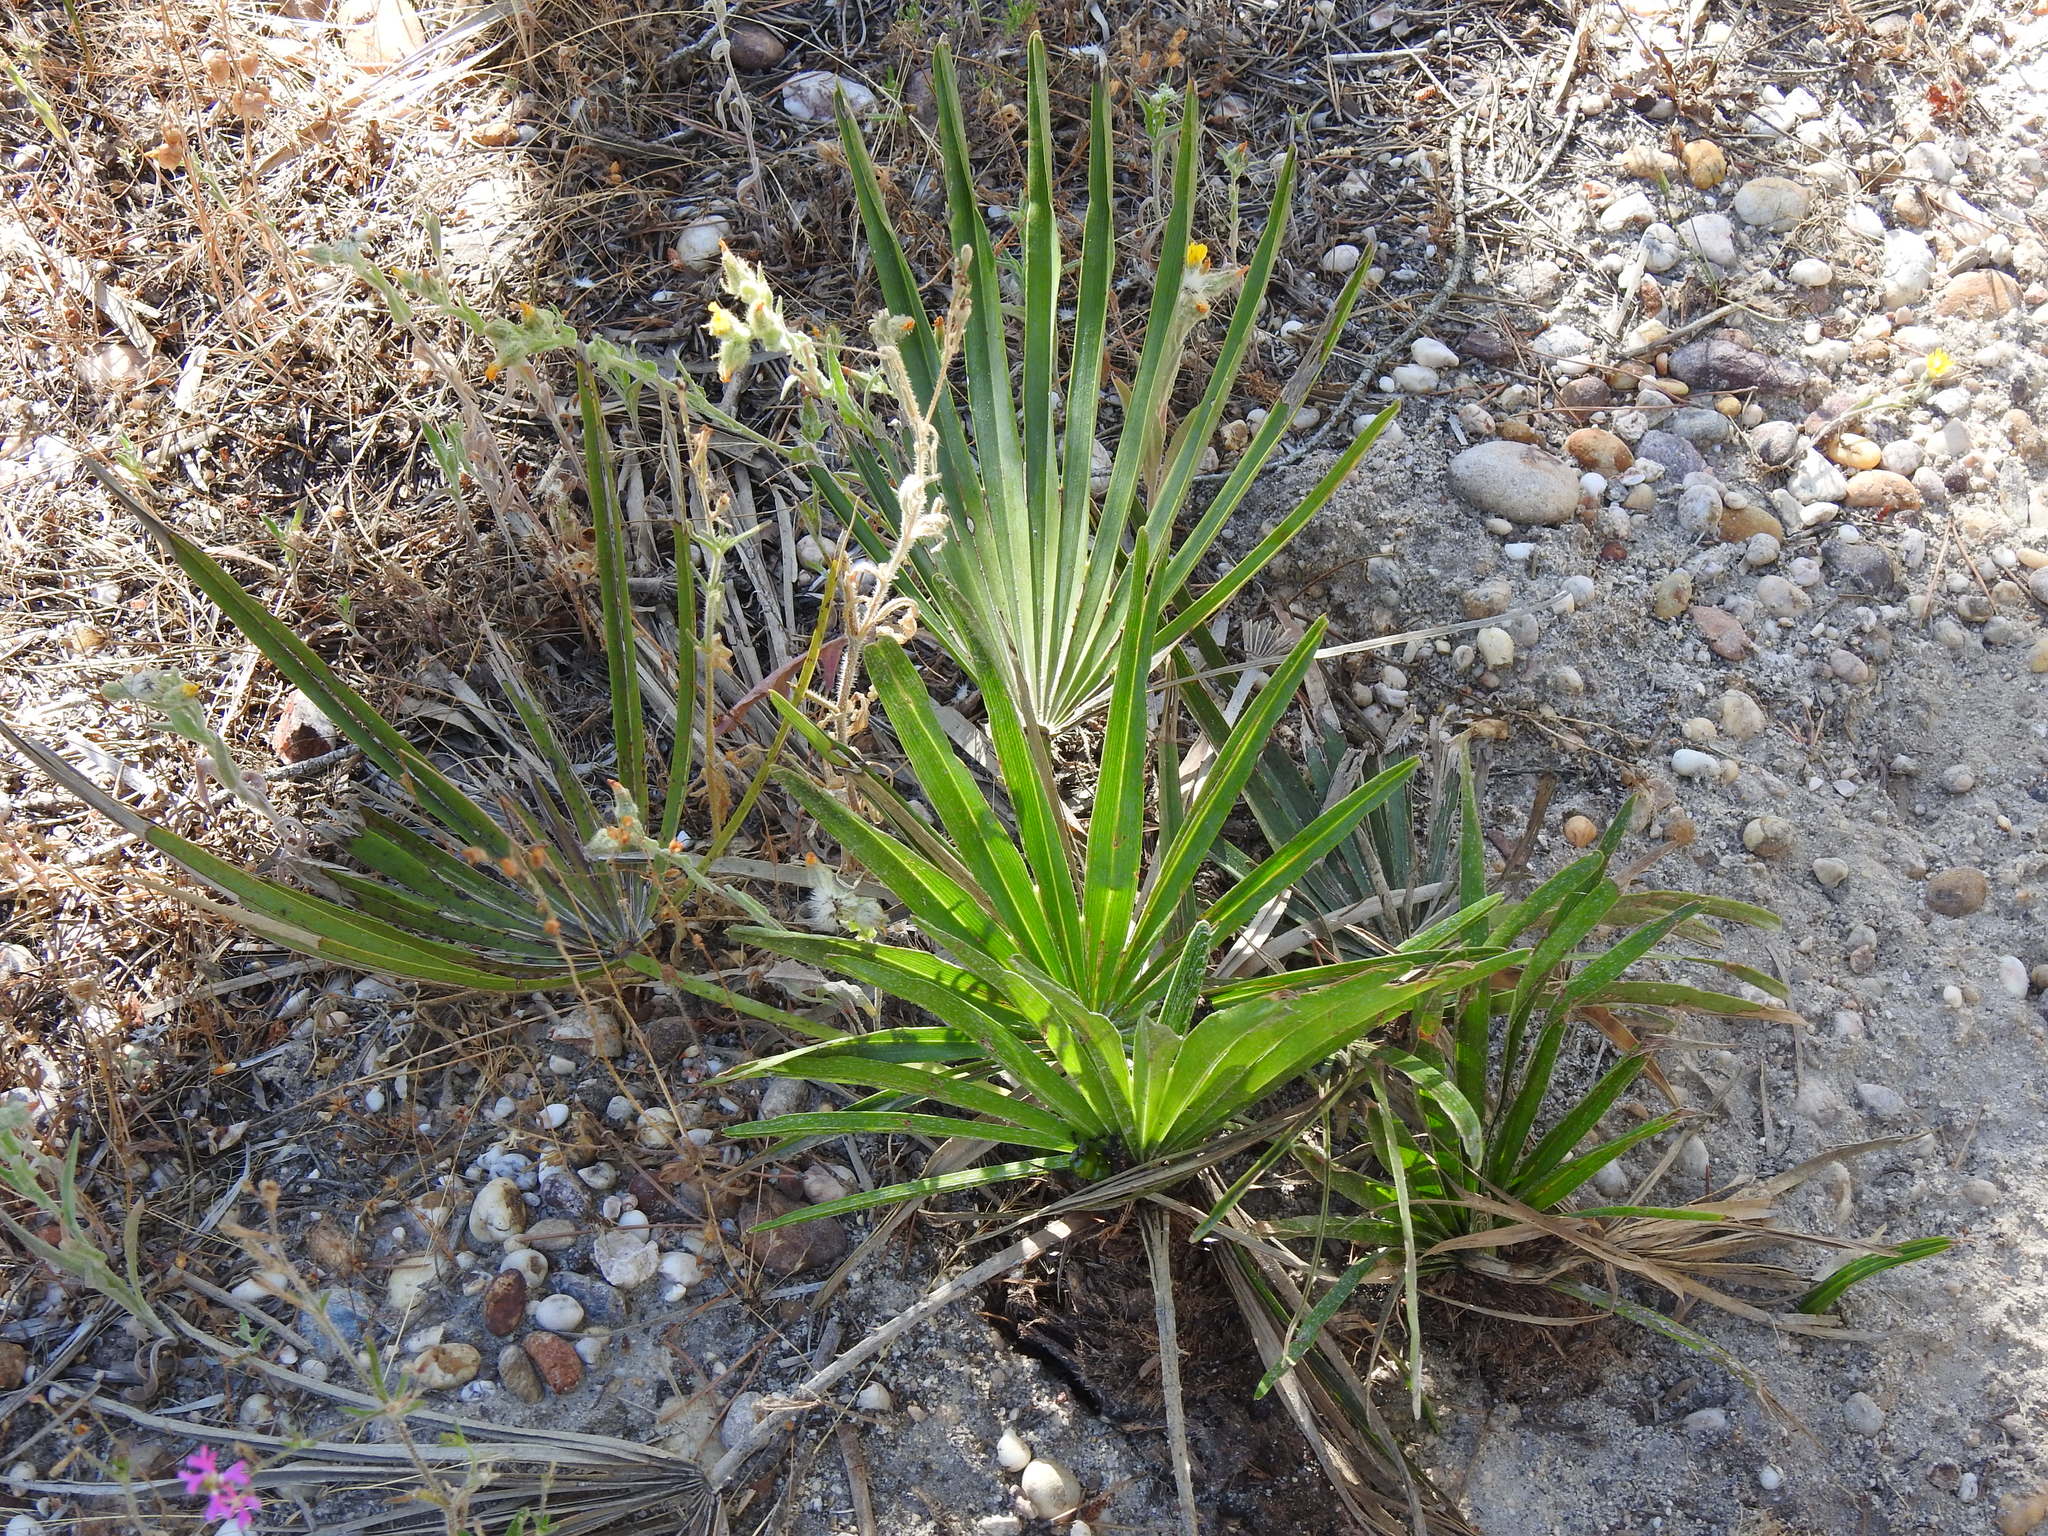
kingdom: Plantae
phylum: Tracheophyta
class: Liliopsida
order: Arecales
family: Arecaceae
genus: Chamaerops
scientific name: Chamaerops humilis
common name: Dwarf fan palm
